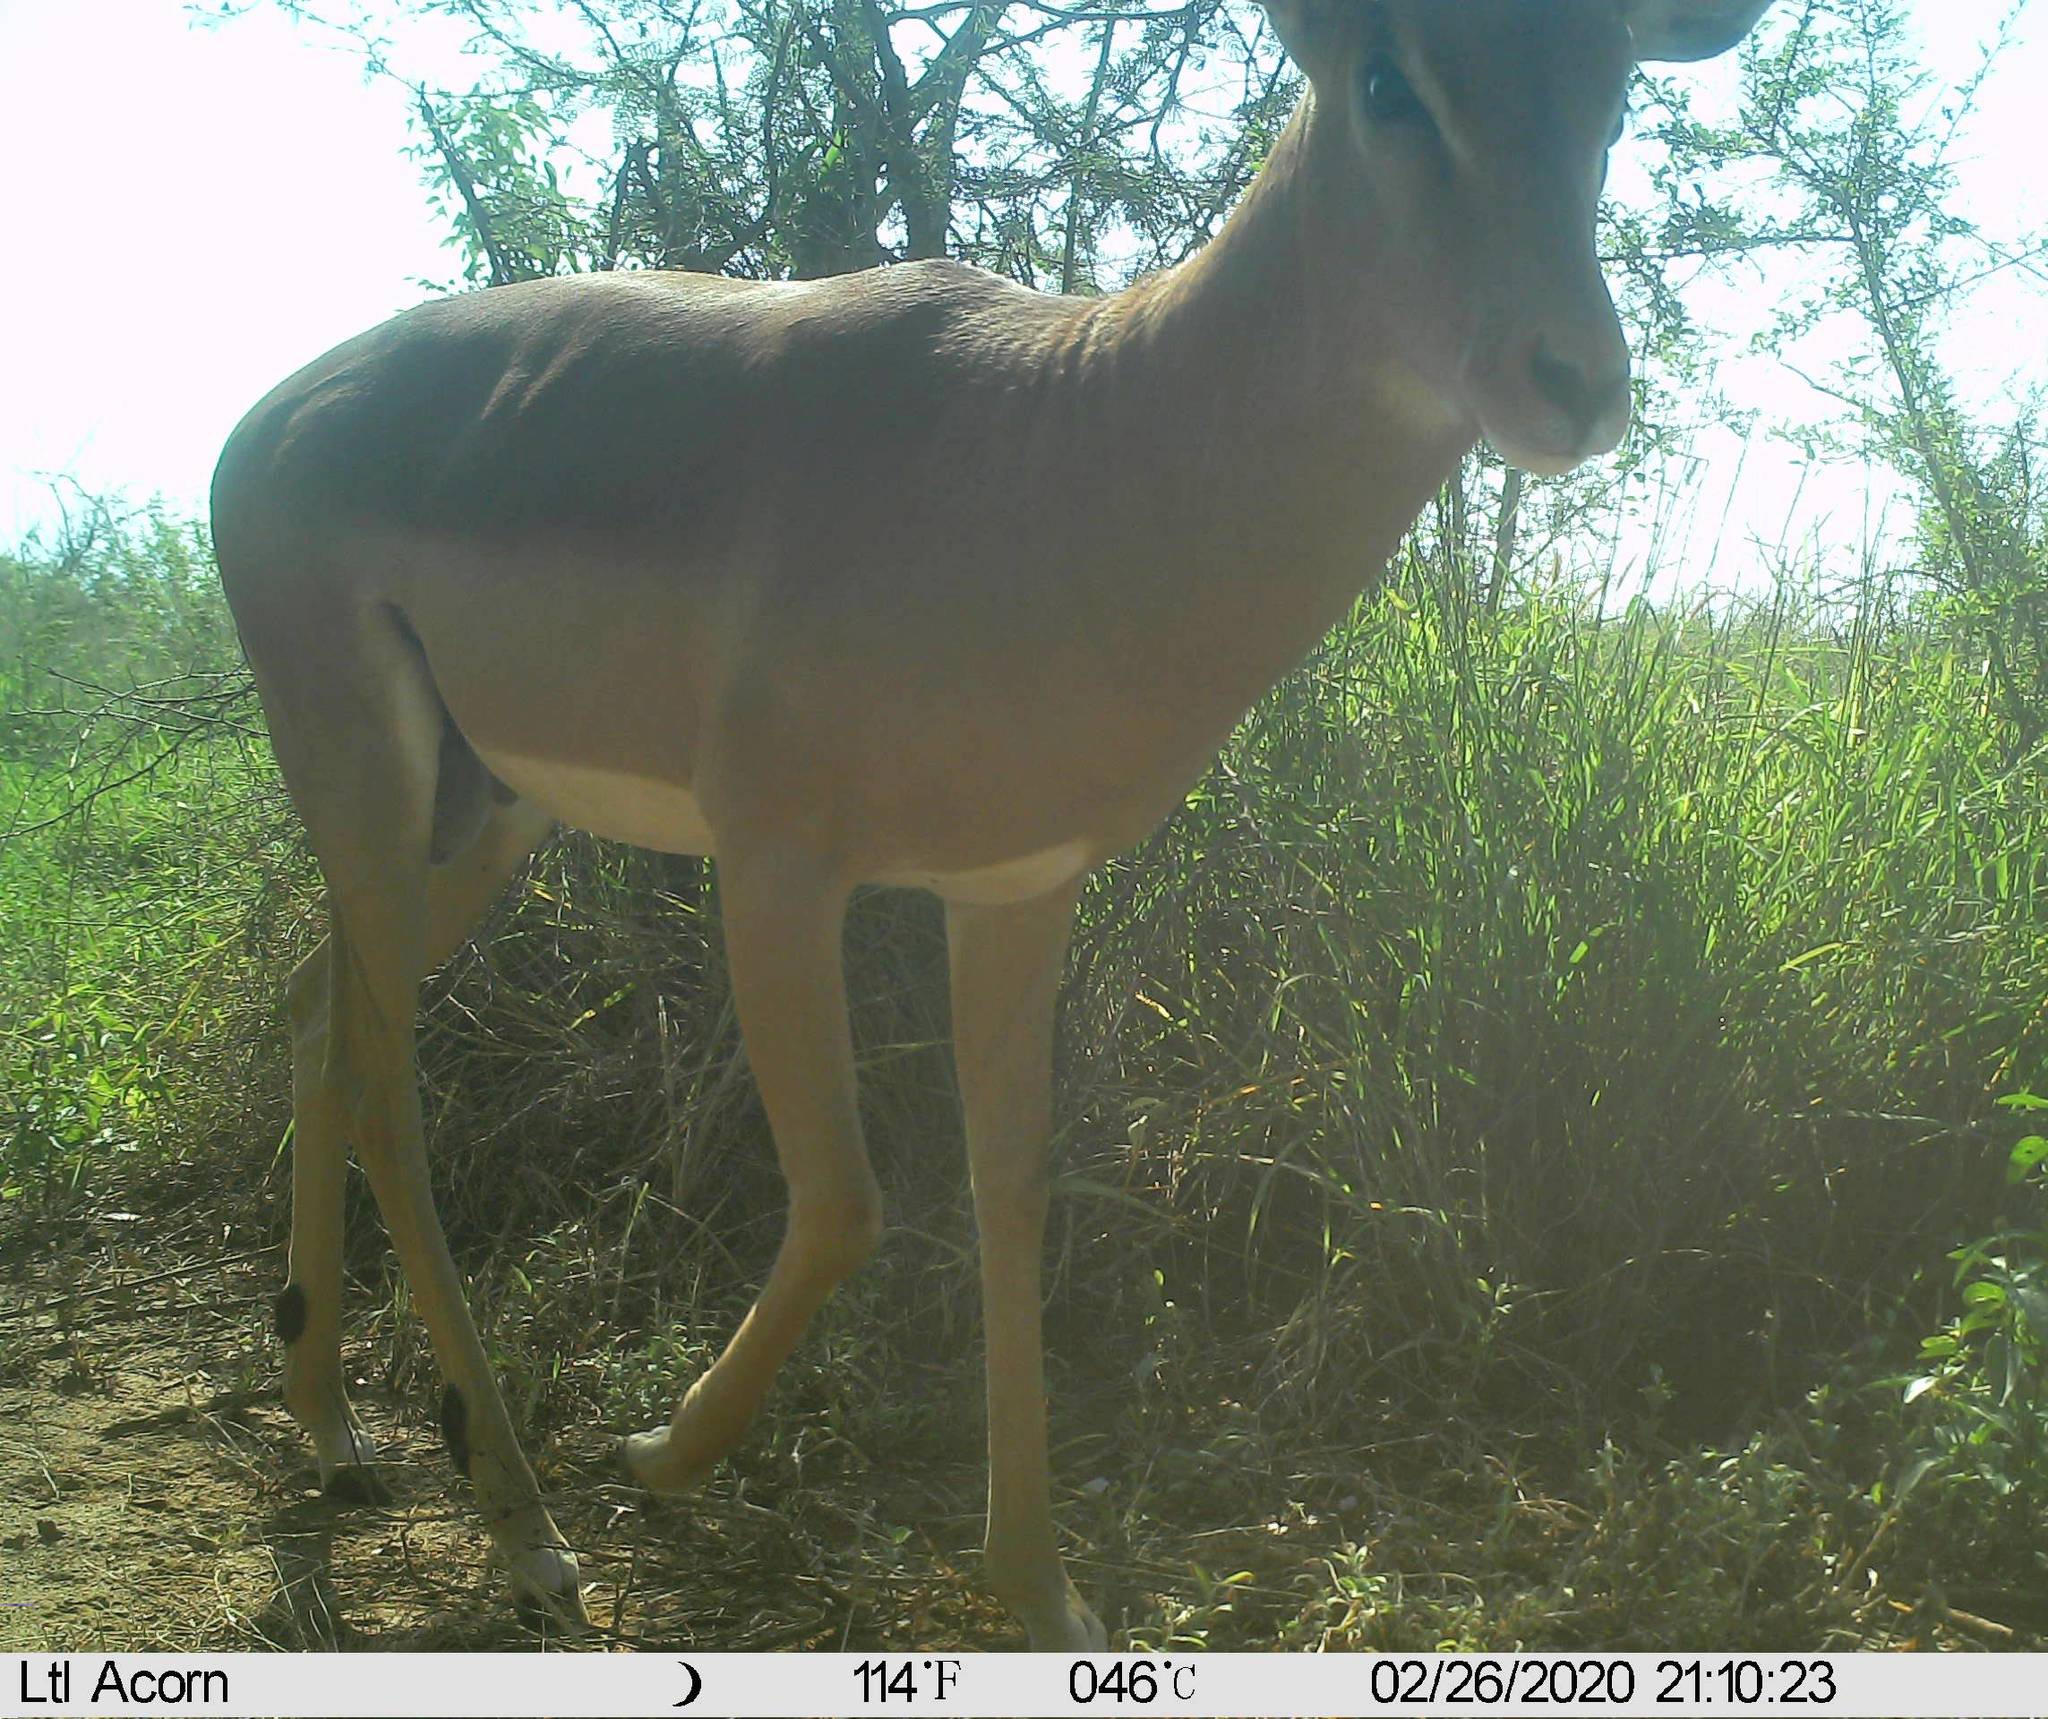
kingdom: Animalia
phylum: Chordata
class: Mammalia
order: Artiodactyla
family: Bovidae
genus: Aepyceros
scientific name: Aepyceros melampus
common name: Impala
